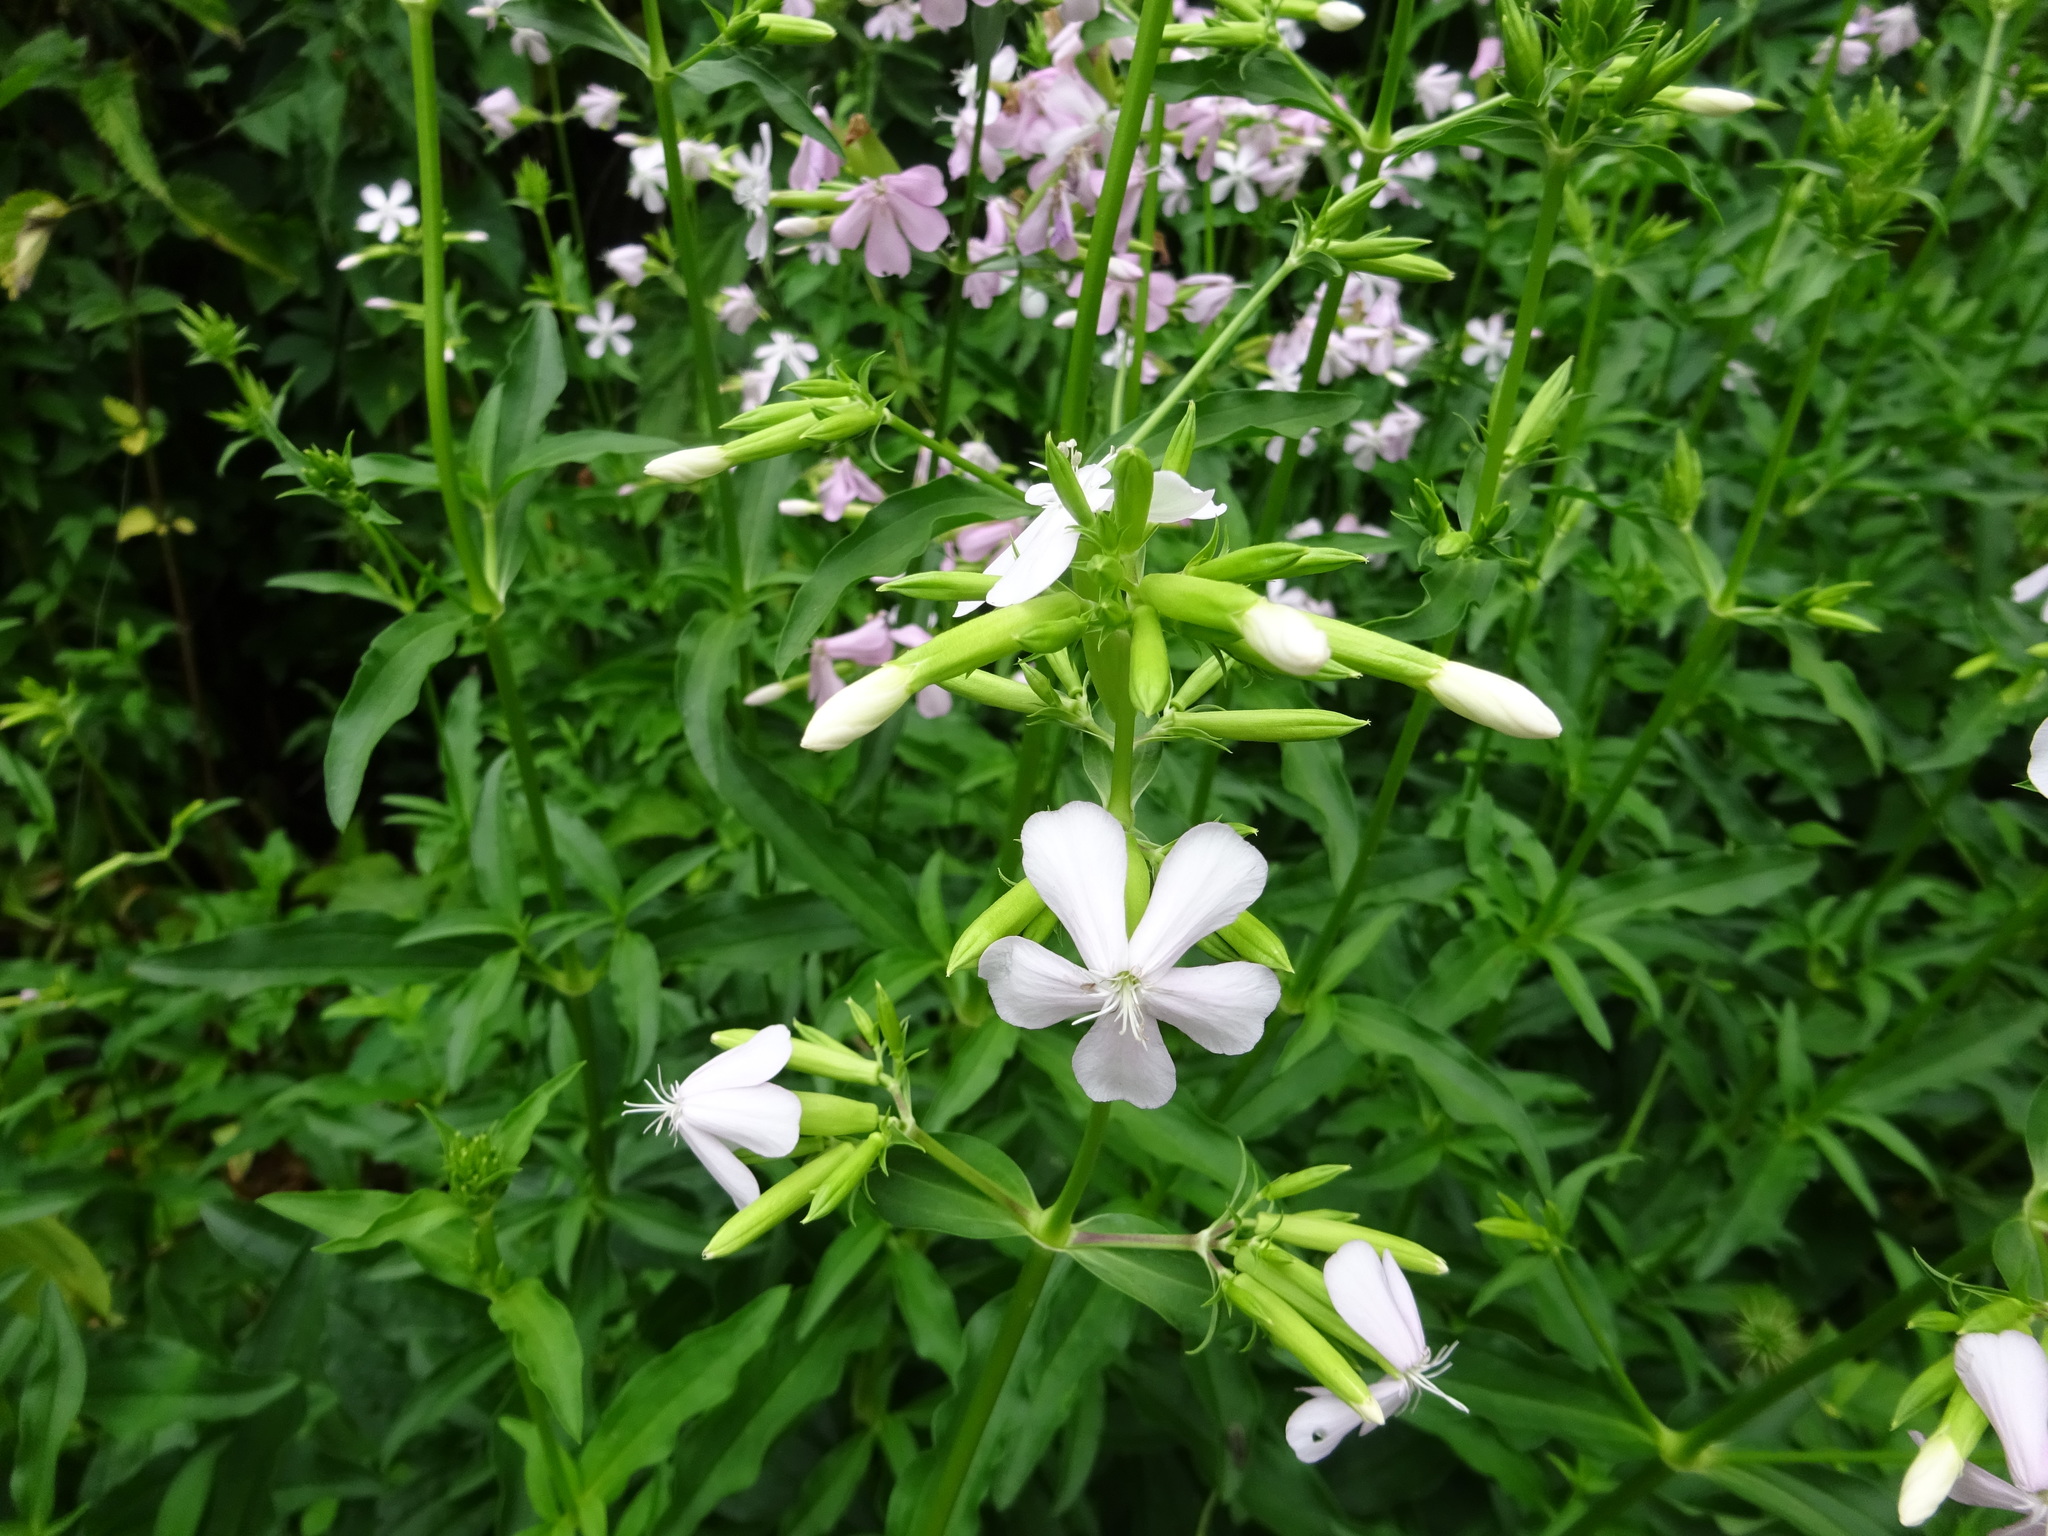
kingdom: Plantae
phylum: Tracheophyta
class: Magnoliopsida
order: Caryophyllales
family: Caryophyllaceae
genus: Saponaria
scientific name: Saponaria officinalis
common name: Soapwort
